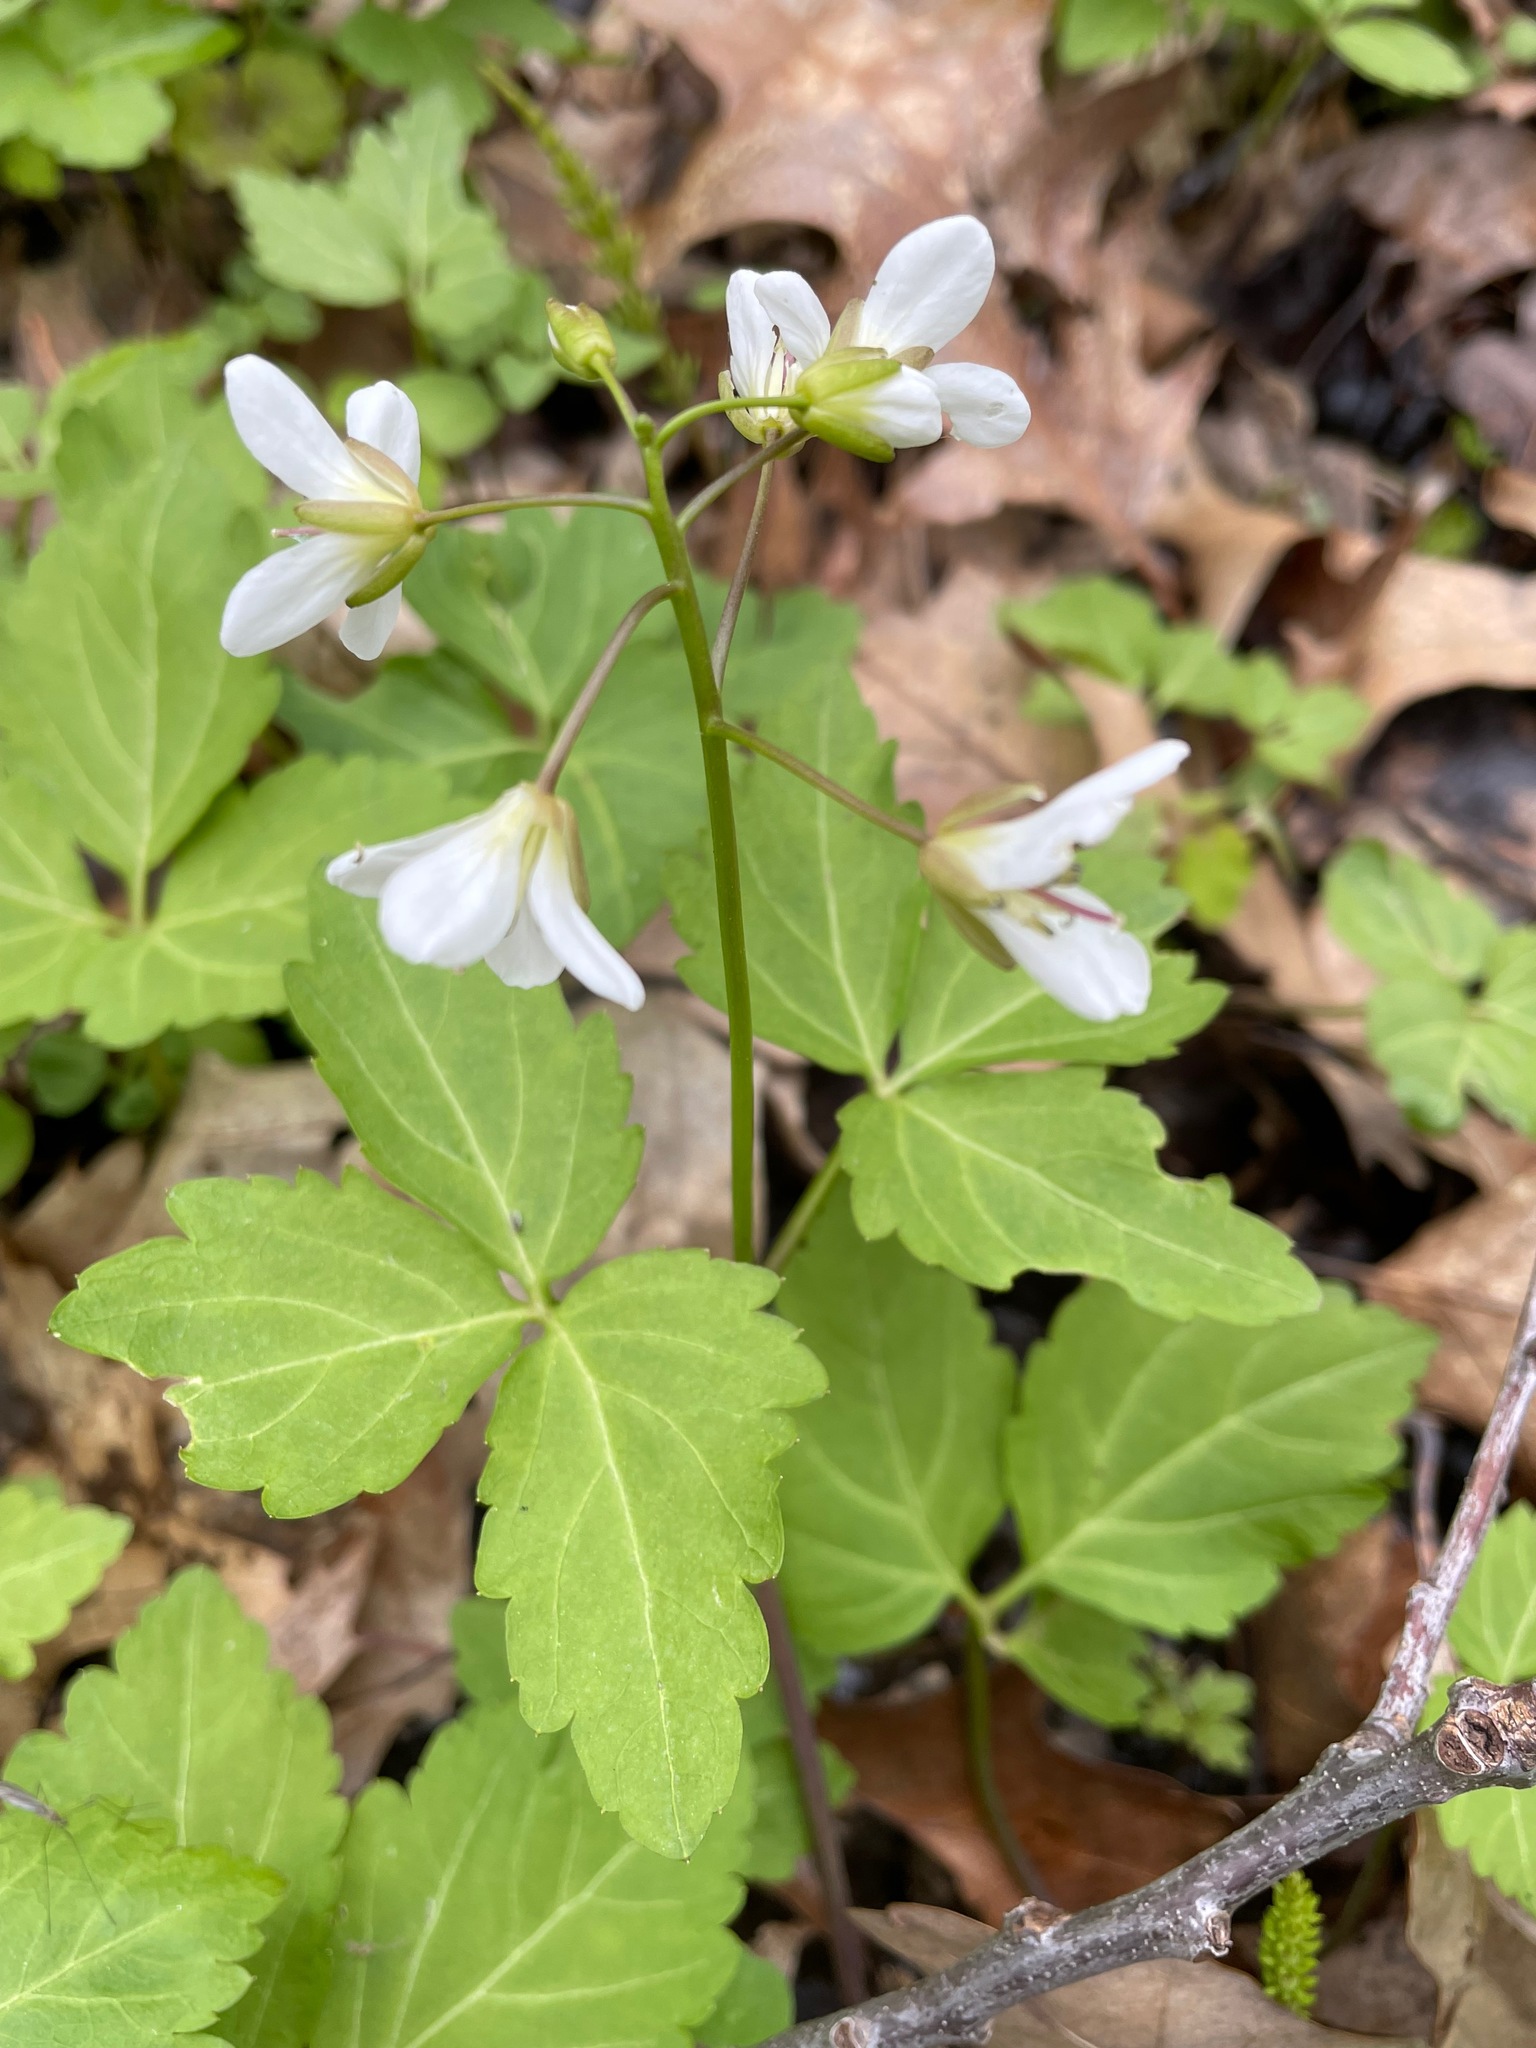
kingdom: Plantae
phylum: Tracheophyta
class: Magnoliopsida
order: Brassicales
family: Brassicaceae
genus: Cardamine
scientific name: Cardamine diphylla
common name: Broad-leaved toothwort
